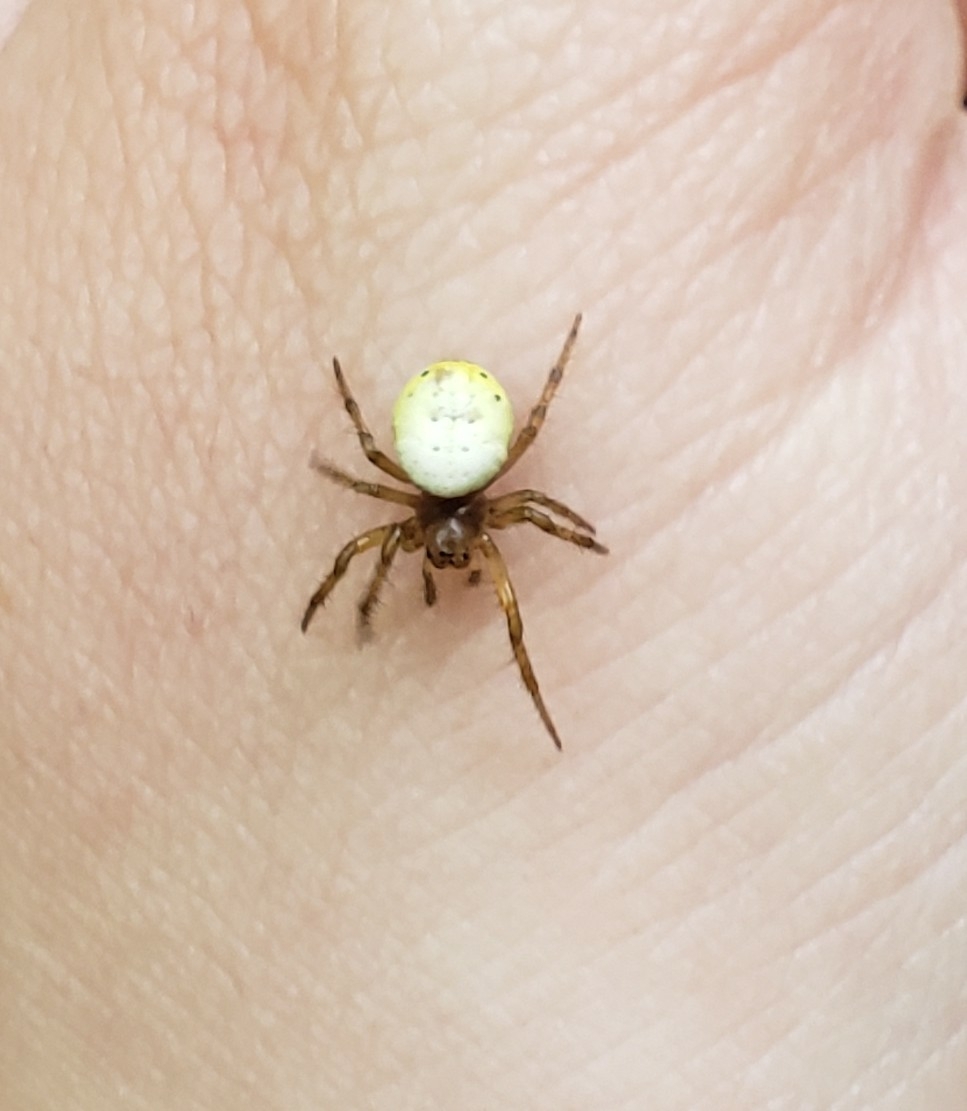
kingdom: Animalia
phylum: Arthropoda
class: Arachnida
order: Araneae
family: Araneidae
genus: Araniella
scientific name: Araniella displicata
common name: Sixspotted orb weaver
